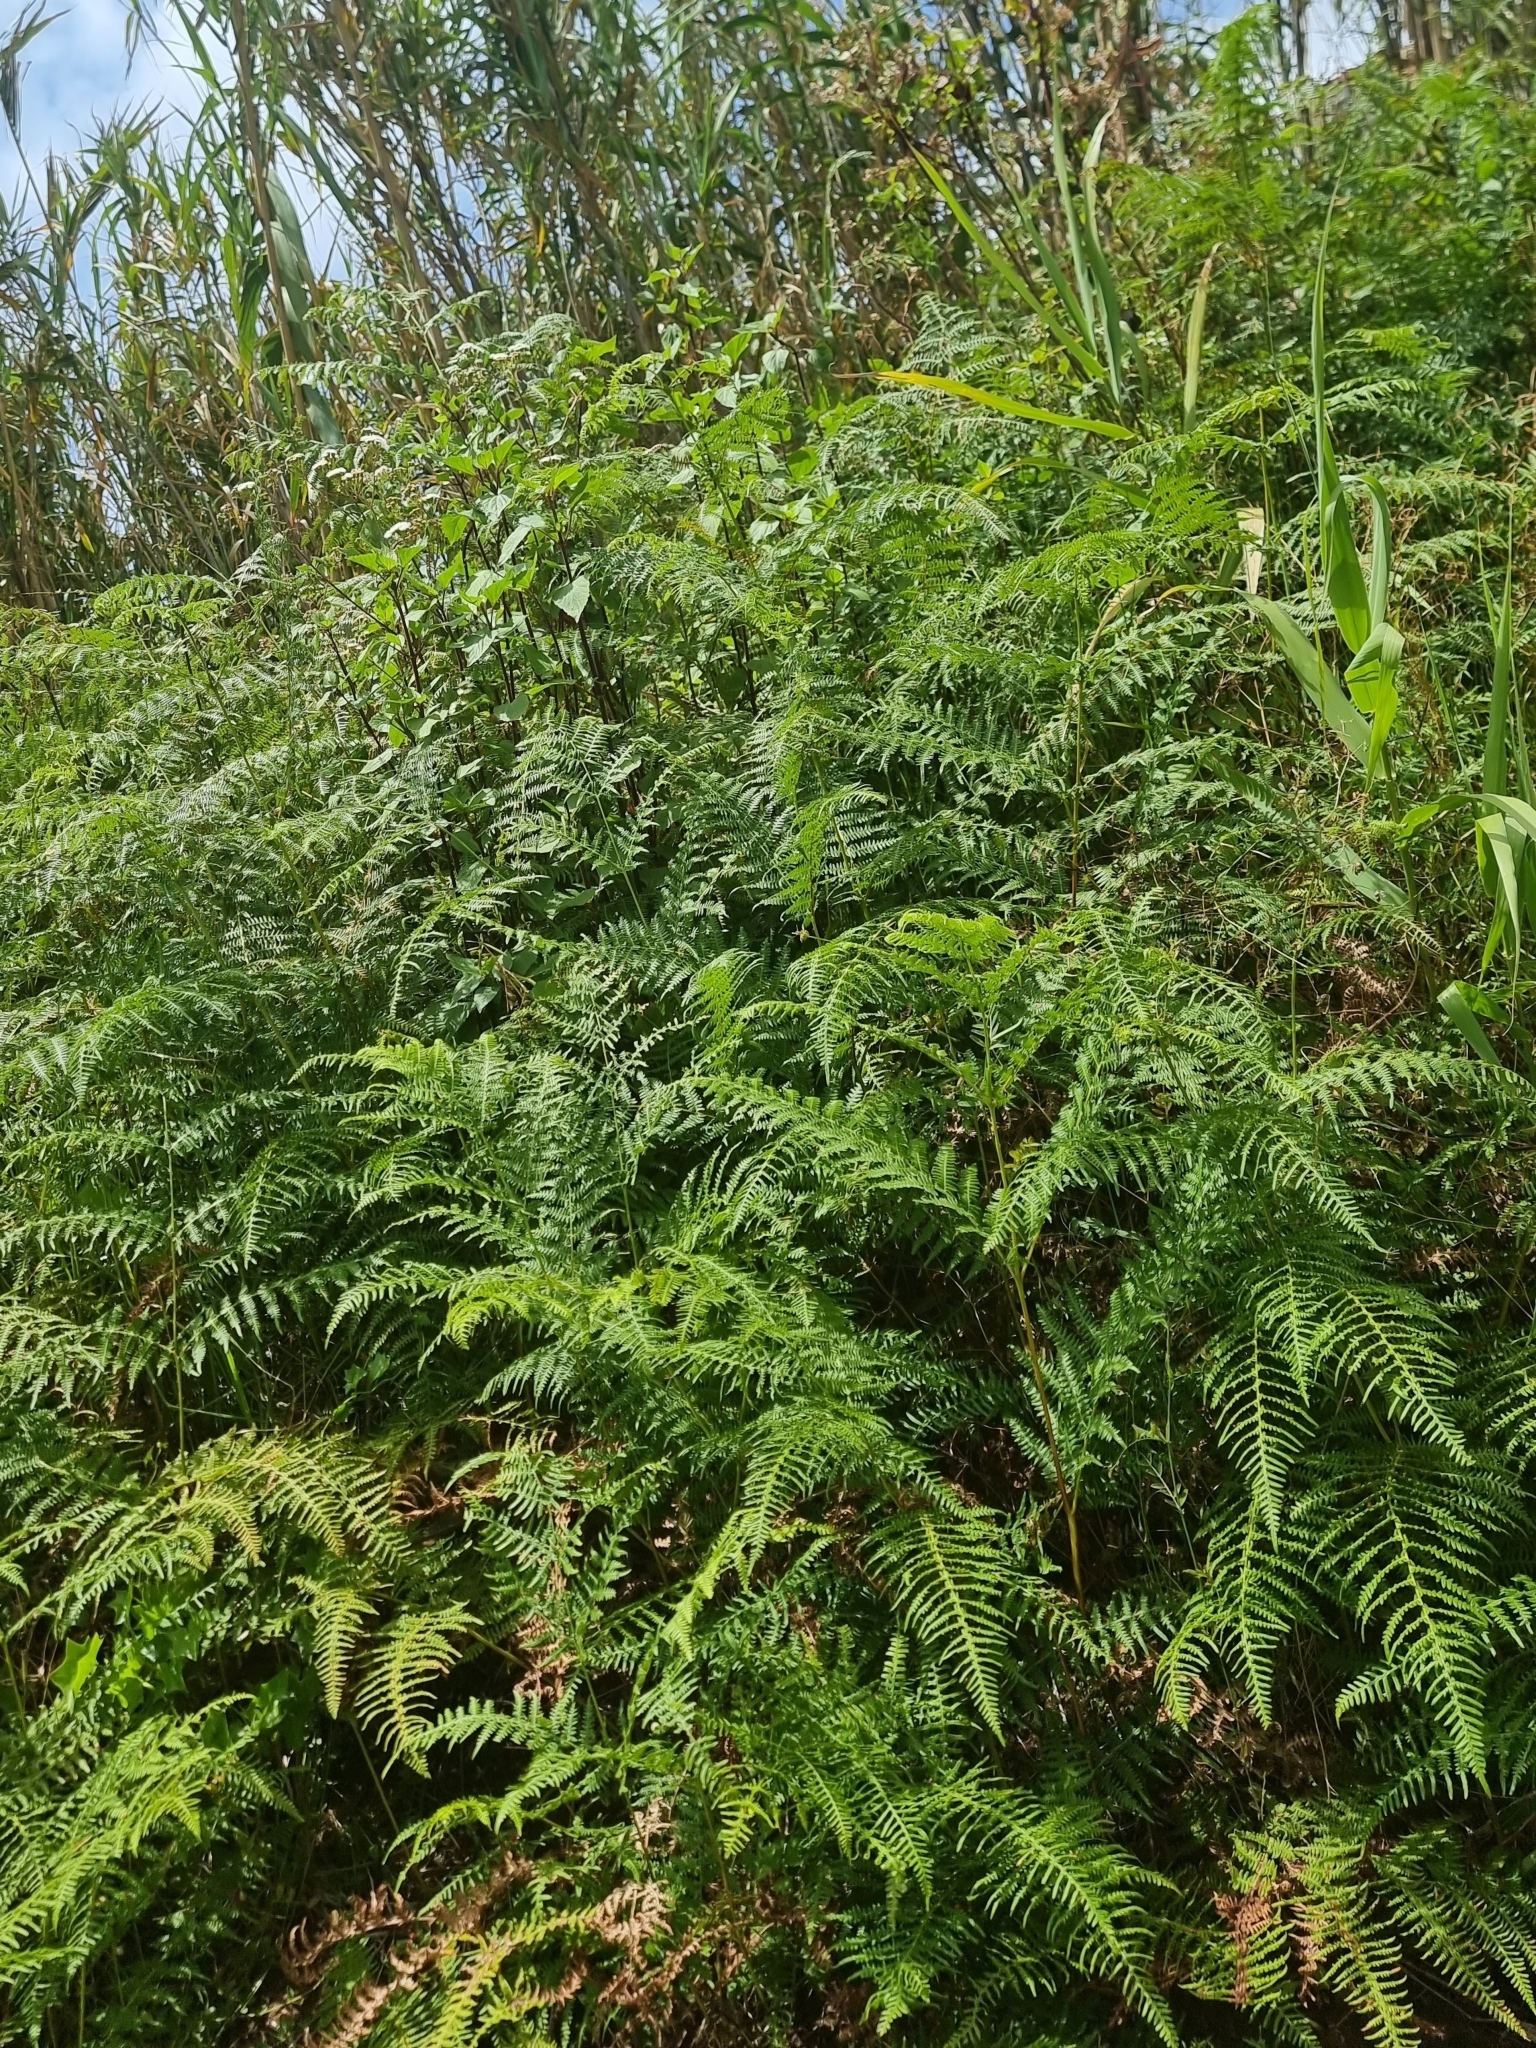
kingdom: Plantae
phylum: Tracheophyta
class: Polypodiopsida
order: Polypodiales
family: Dennstaedtiaceae
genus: Pteridium
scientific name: Pteridium aquilinum
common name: Bracken
